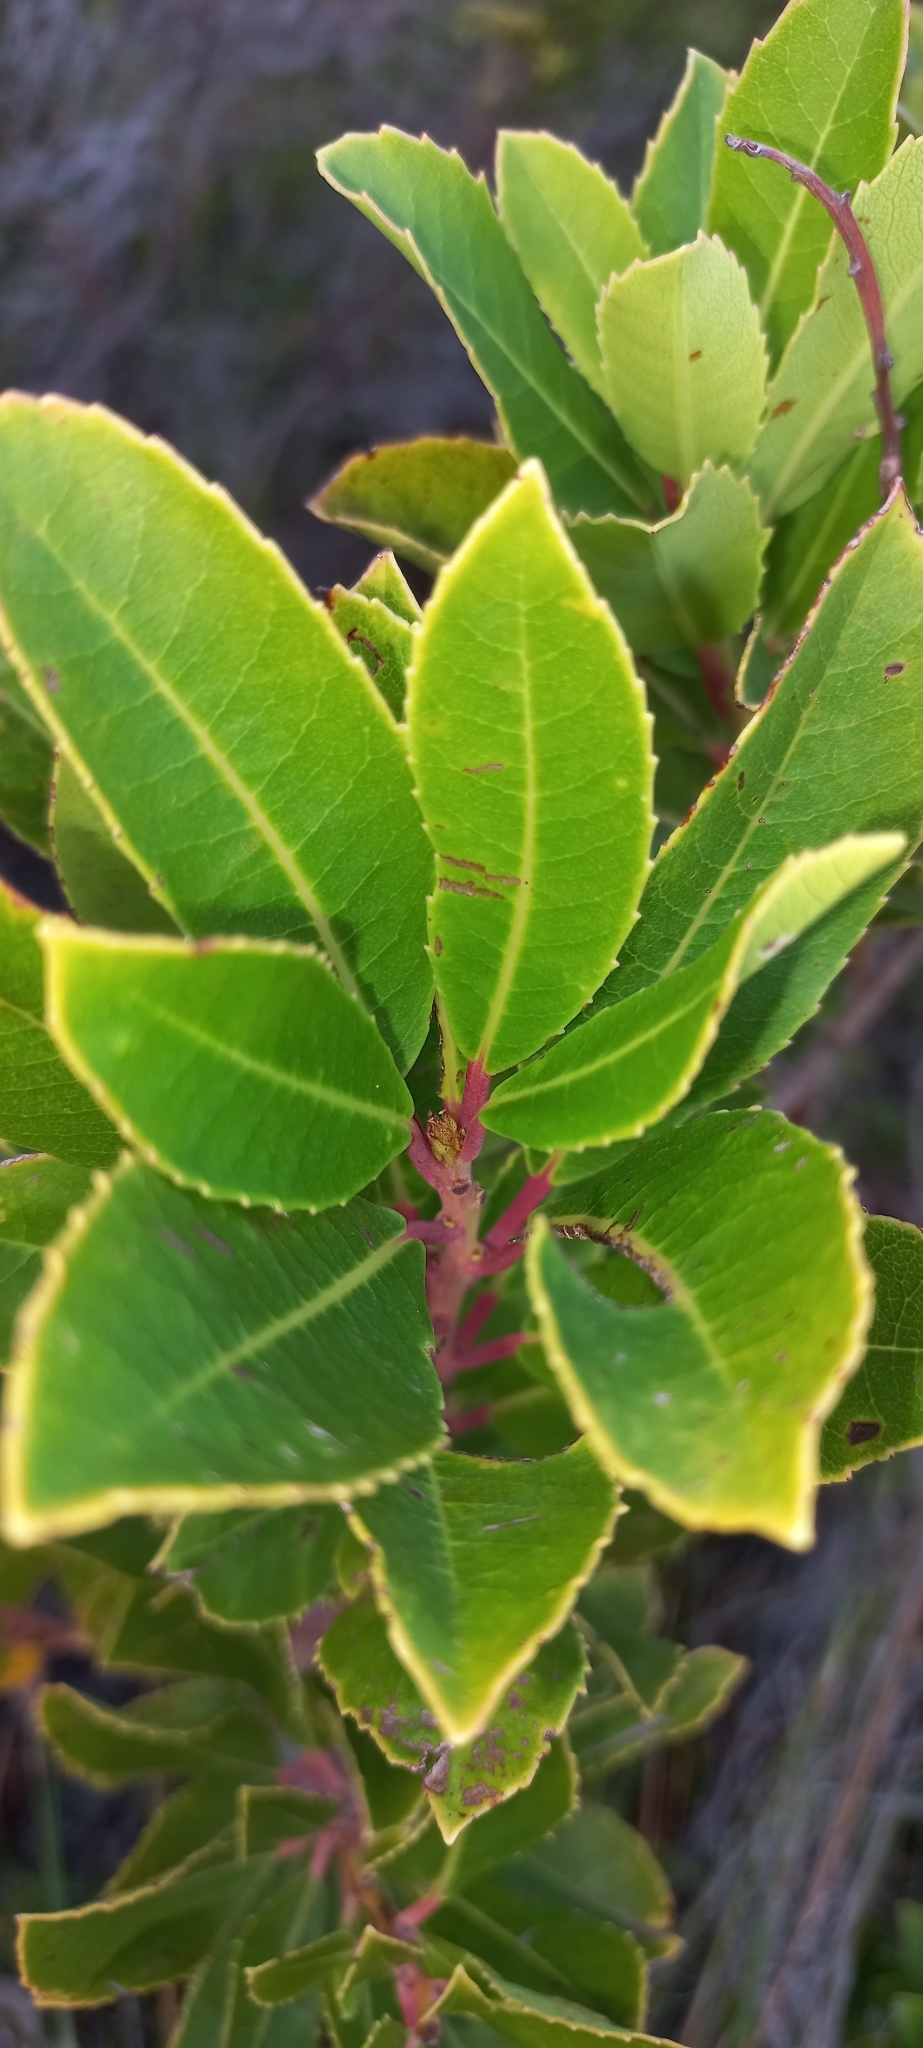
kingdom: Plantae
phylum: Tracheophyta
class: Magnoliopsida
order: Sapindales
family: Anacardiaceae
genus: Laurophyllus
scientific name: Laurophyllus capensis
